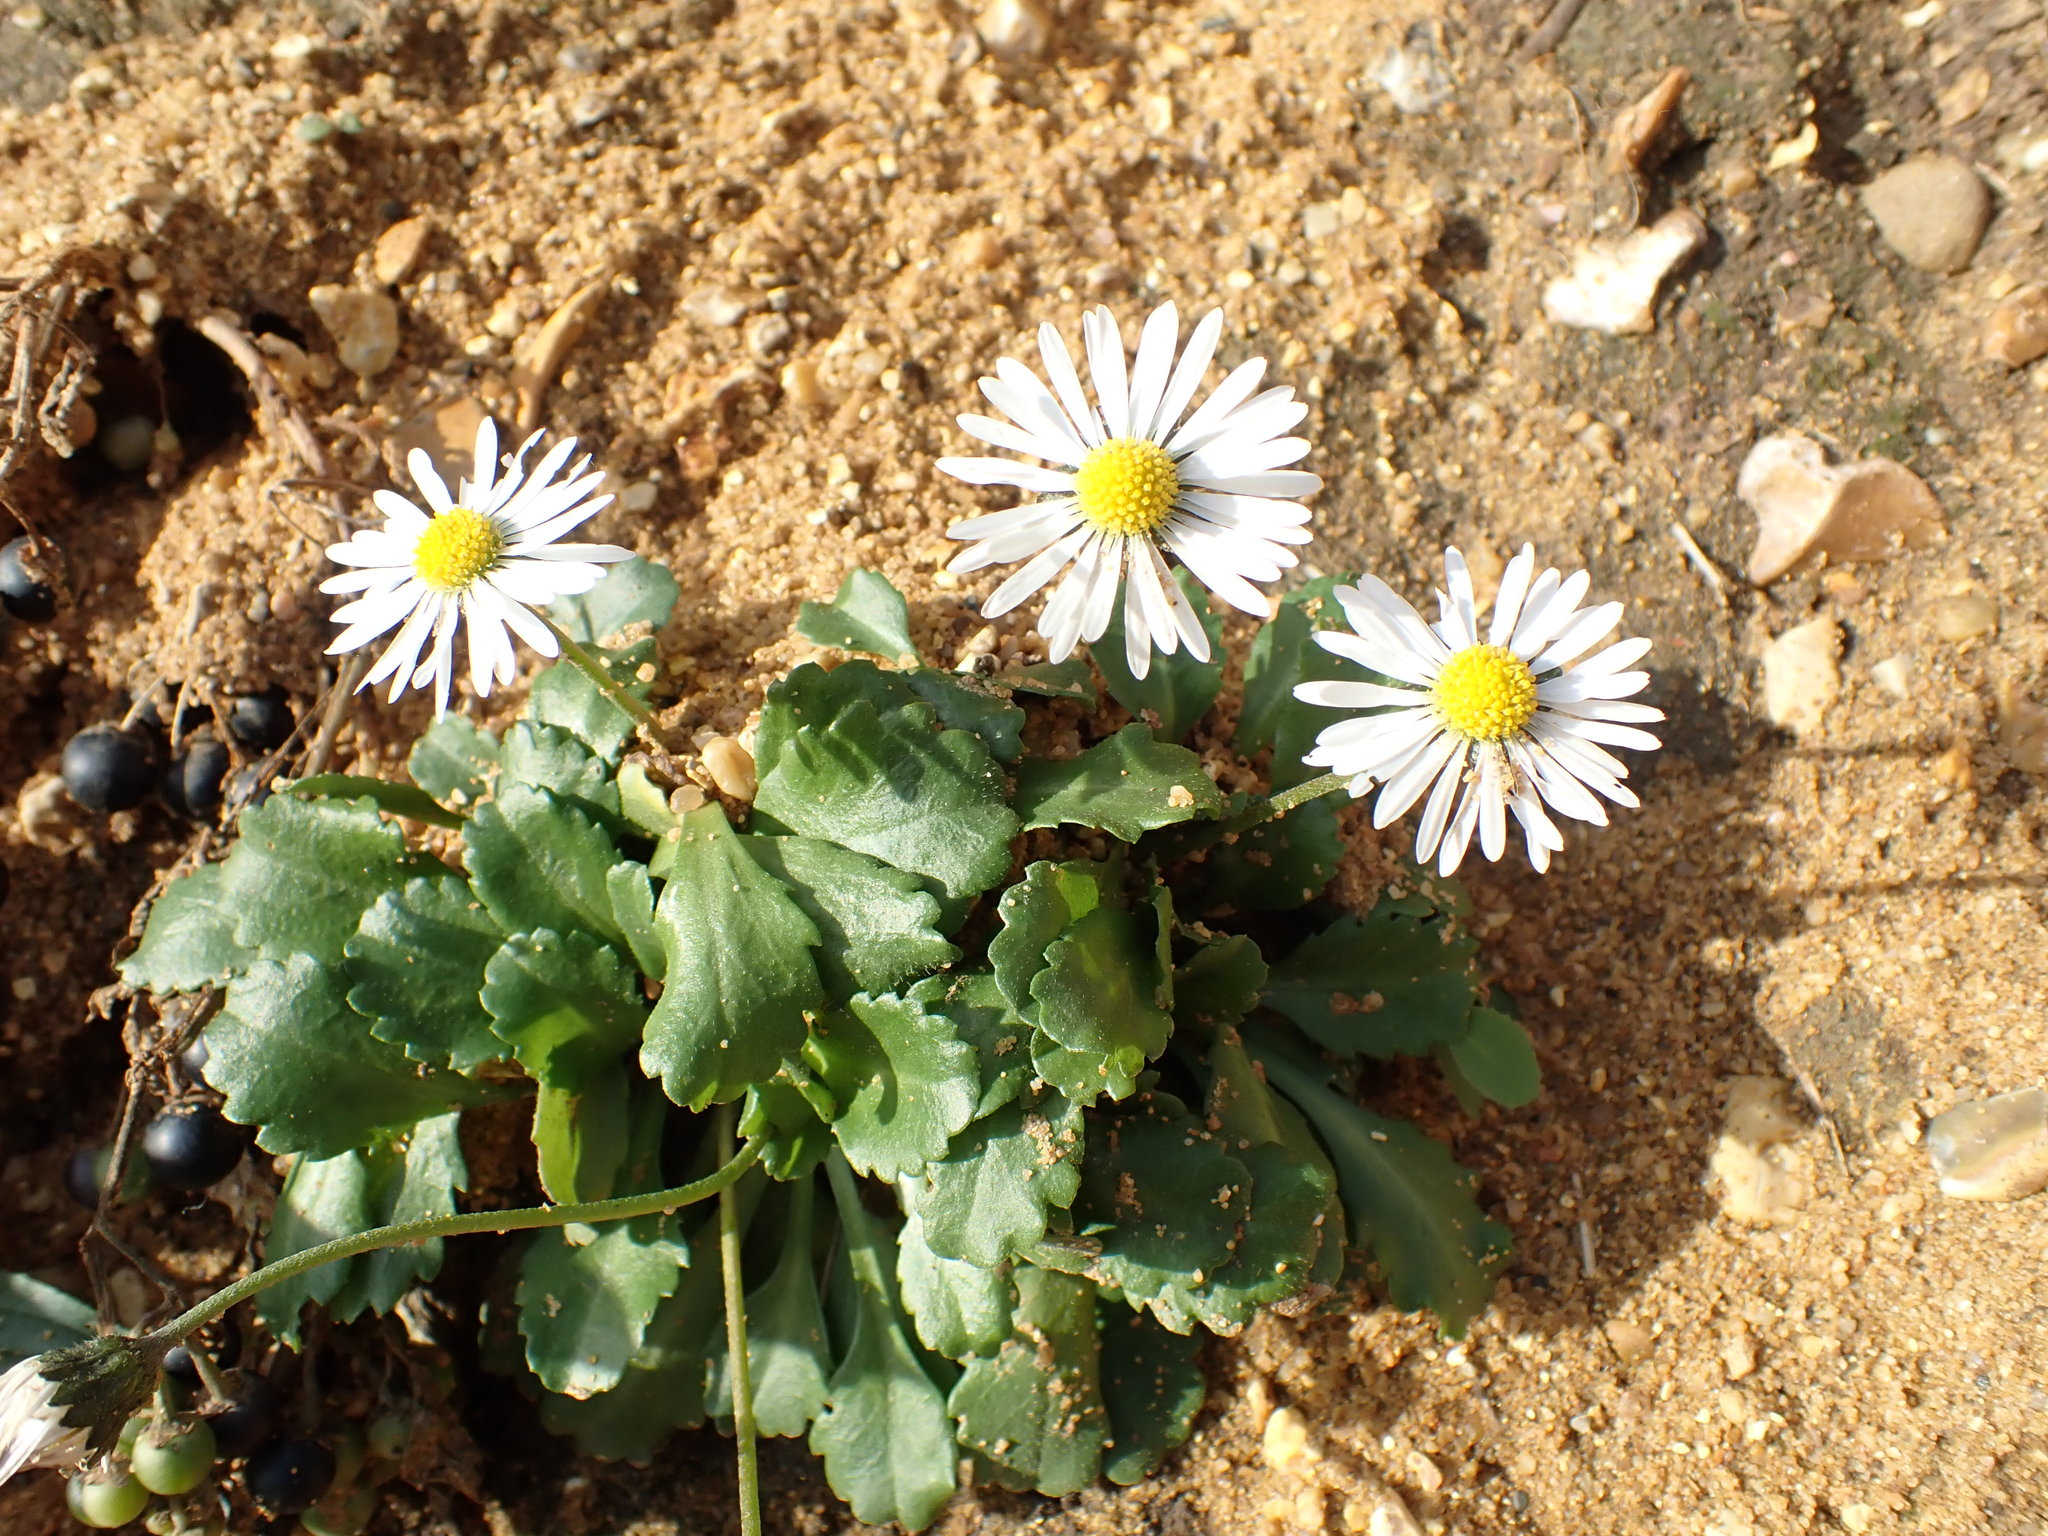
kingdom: Plantae
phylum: Tracheophyta
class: Magnoliopsida
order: Asterales
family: Asteraceae
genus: Bellis
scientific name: Bellis perennis
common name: Lawndaisy
